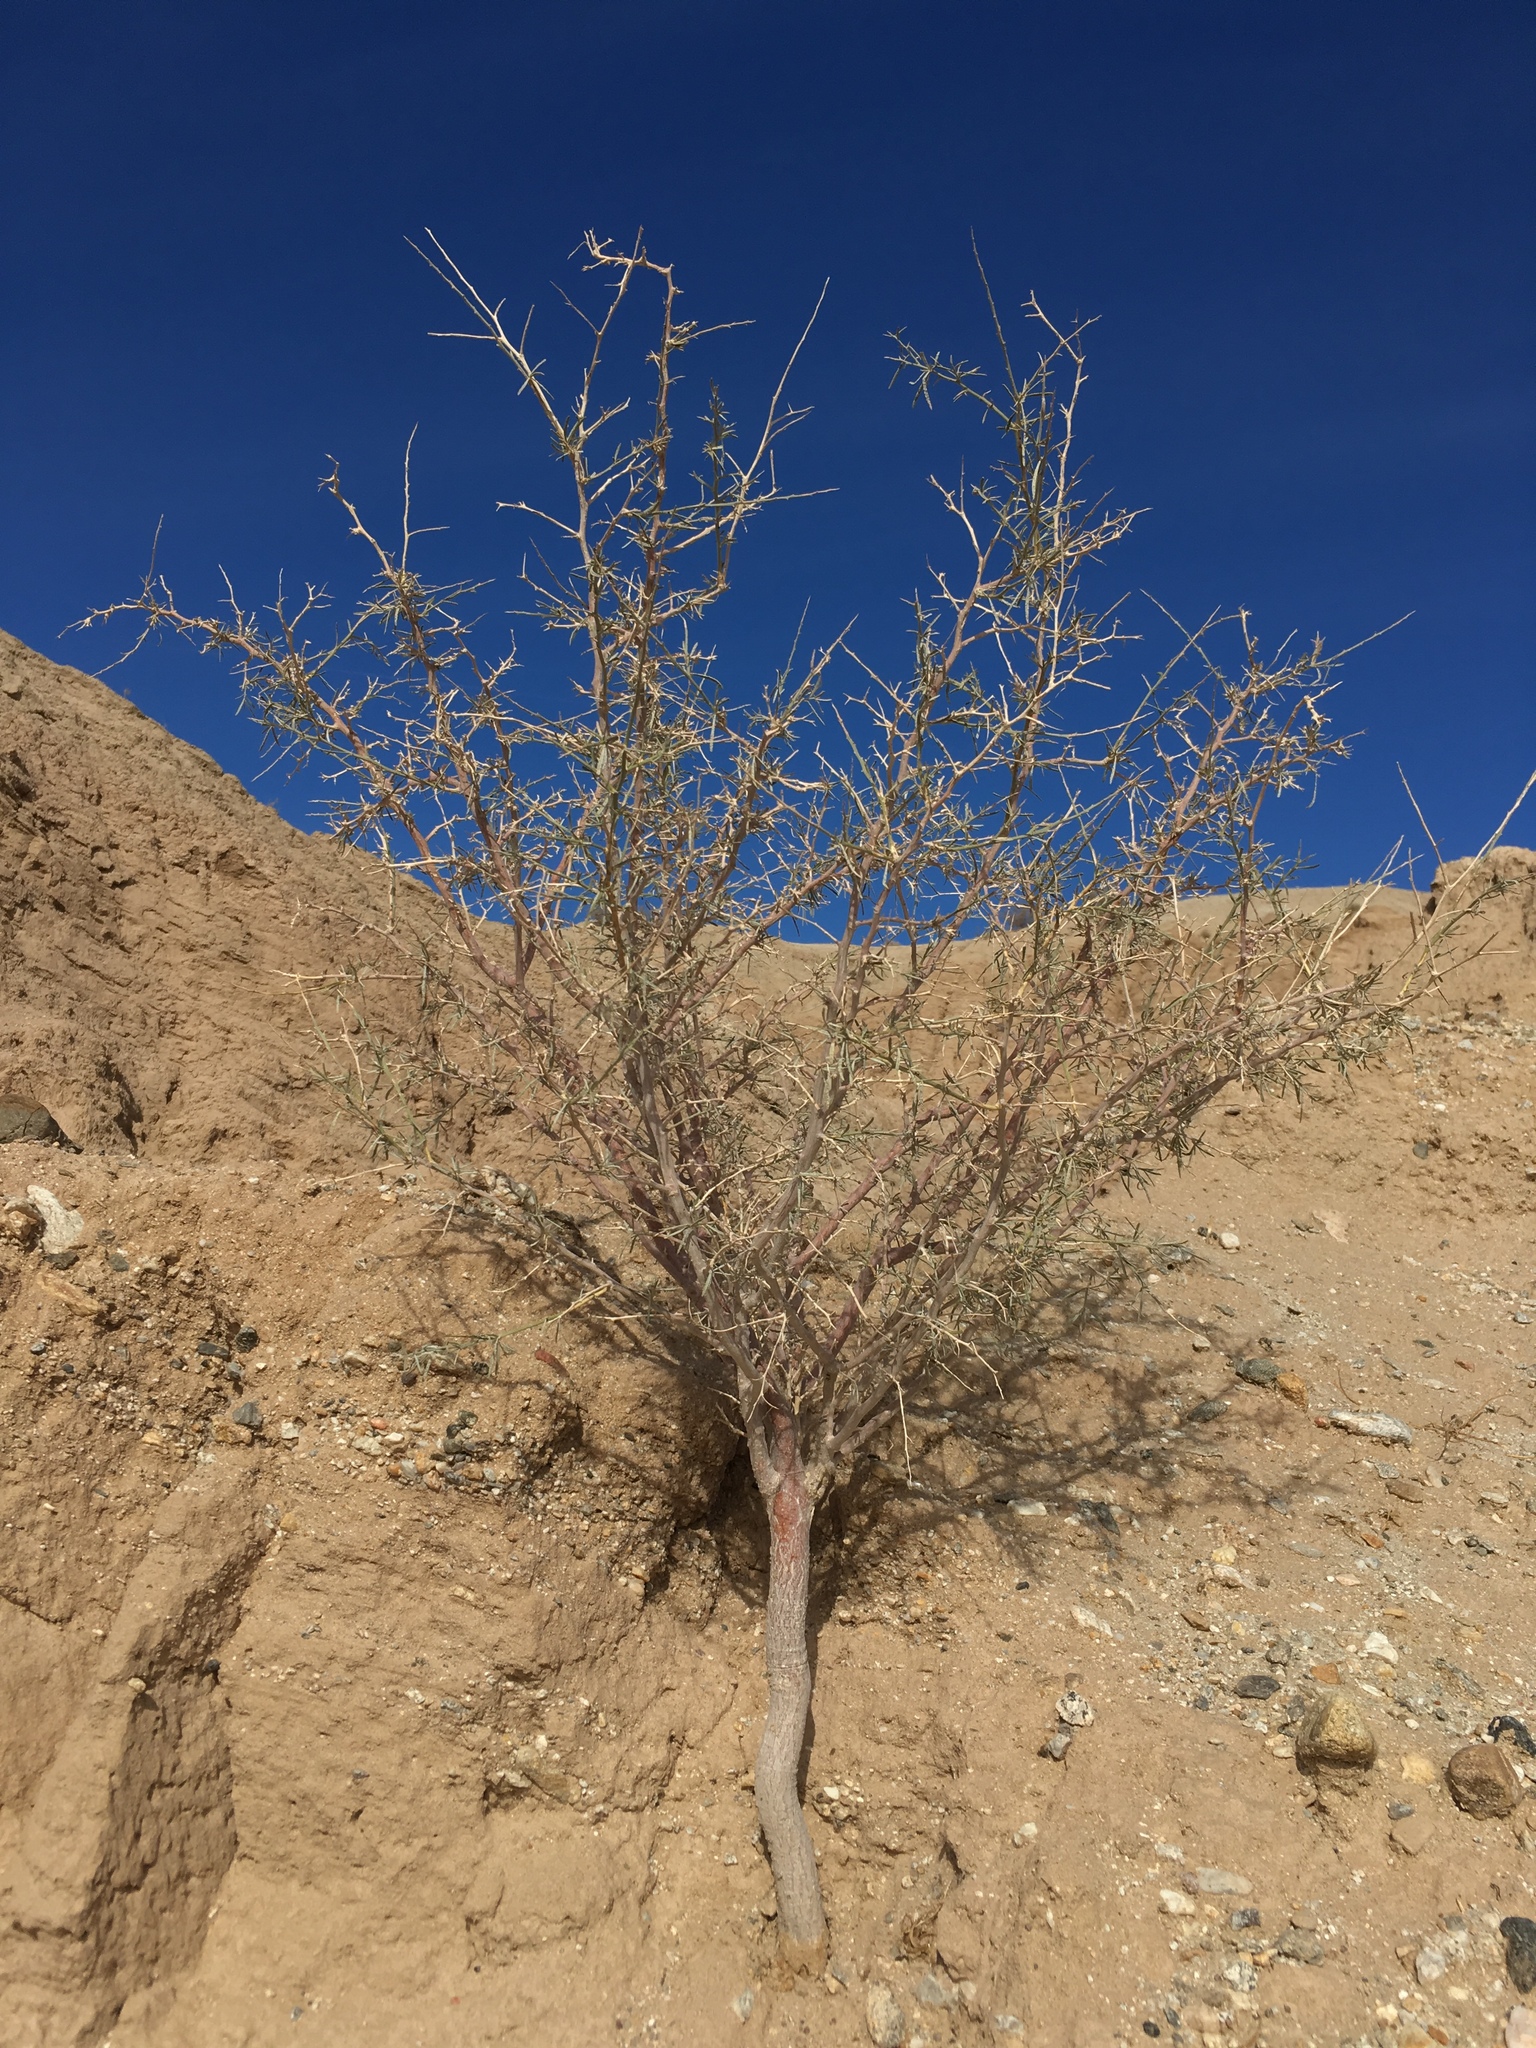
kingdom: Plantae
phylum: Tracheophyta
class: Magnoliopsida
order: Fabales
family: Fabaceae
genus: Psorothamnus
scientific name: Psorothamnus schottii
